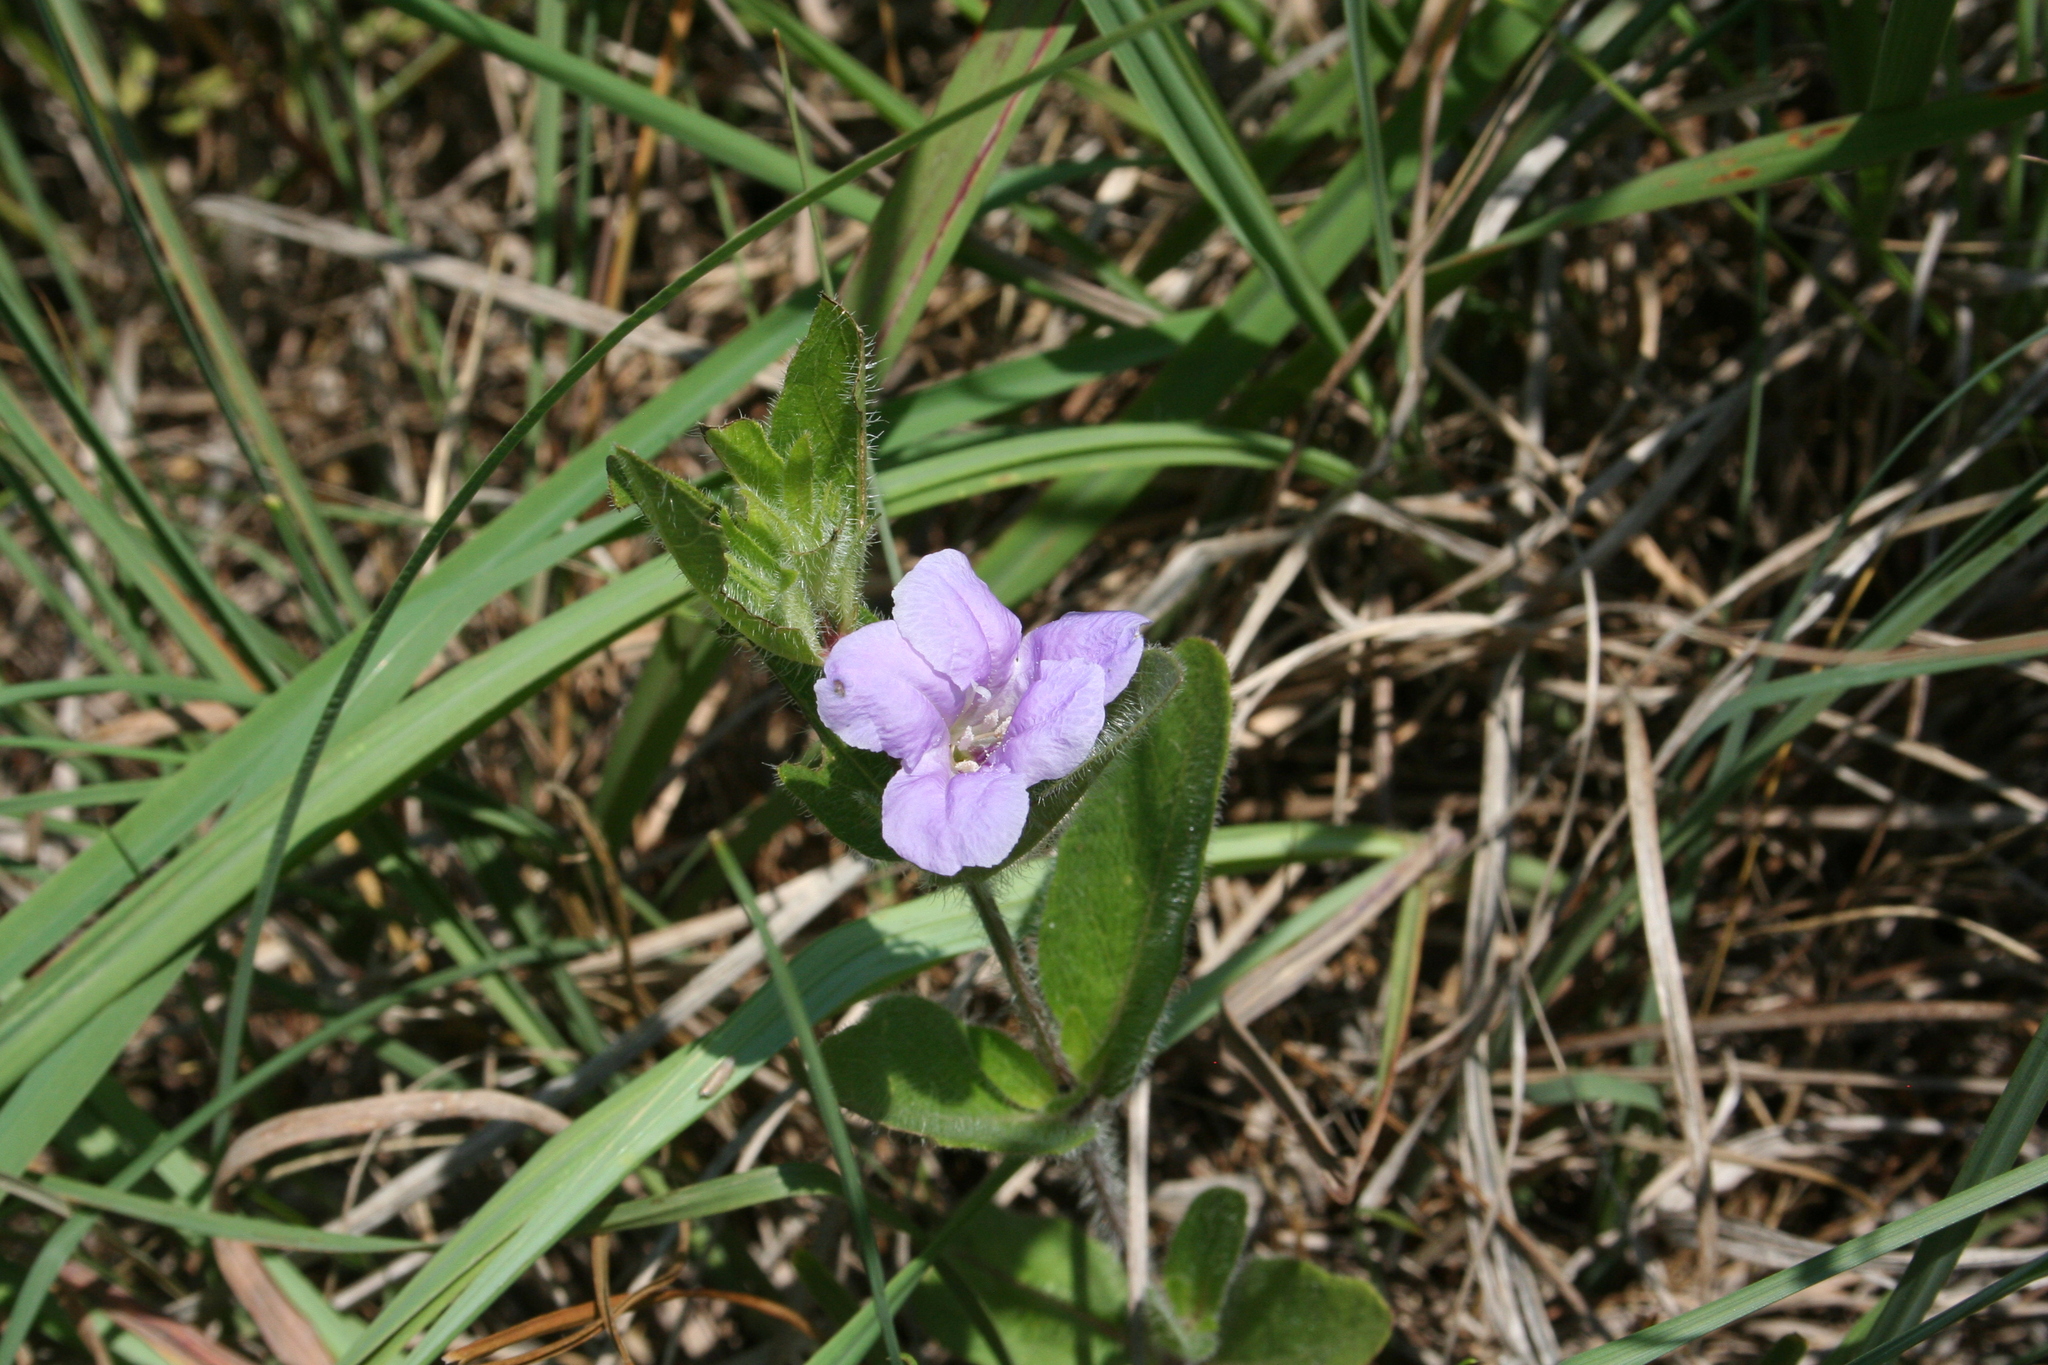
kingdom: Plantae
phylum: Tracheophyta
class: Magnoliopsida
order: Lamiales
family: Acanthaceae
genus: Ruellia
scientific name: Ruellia humilis
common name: Fringe-leaf ruellia
